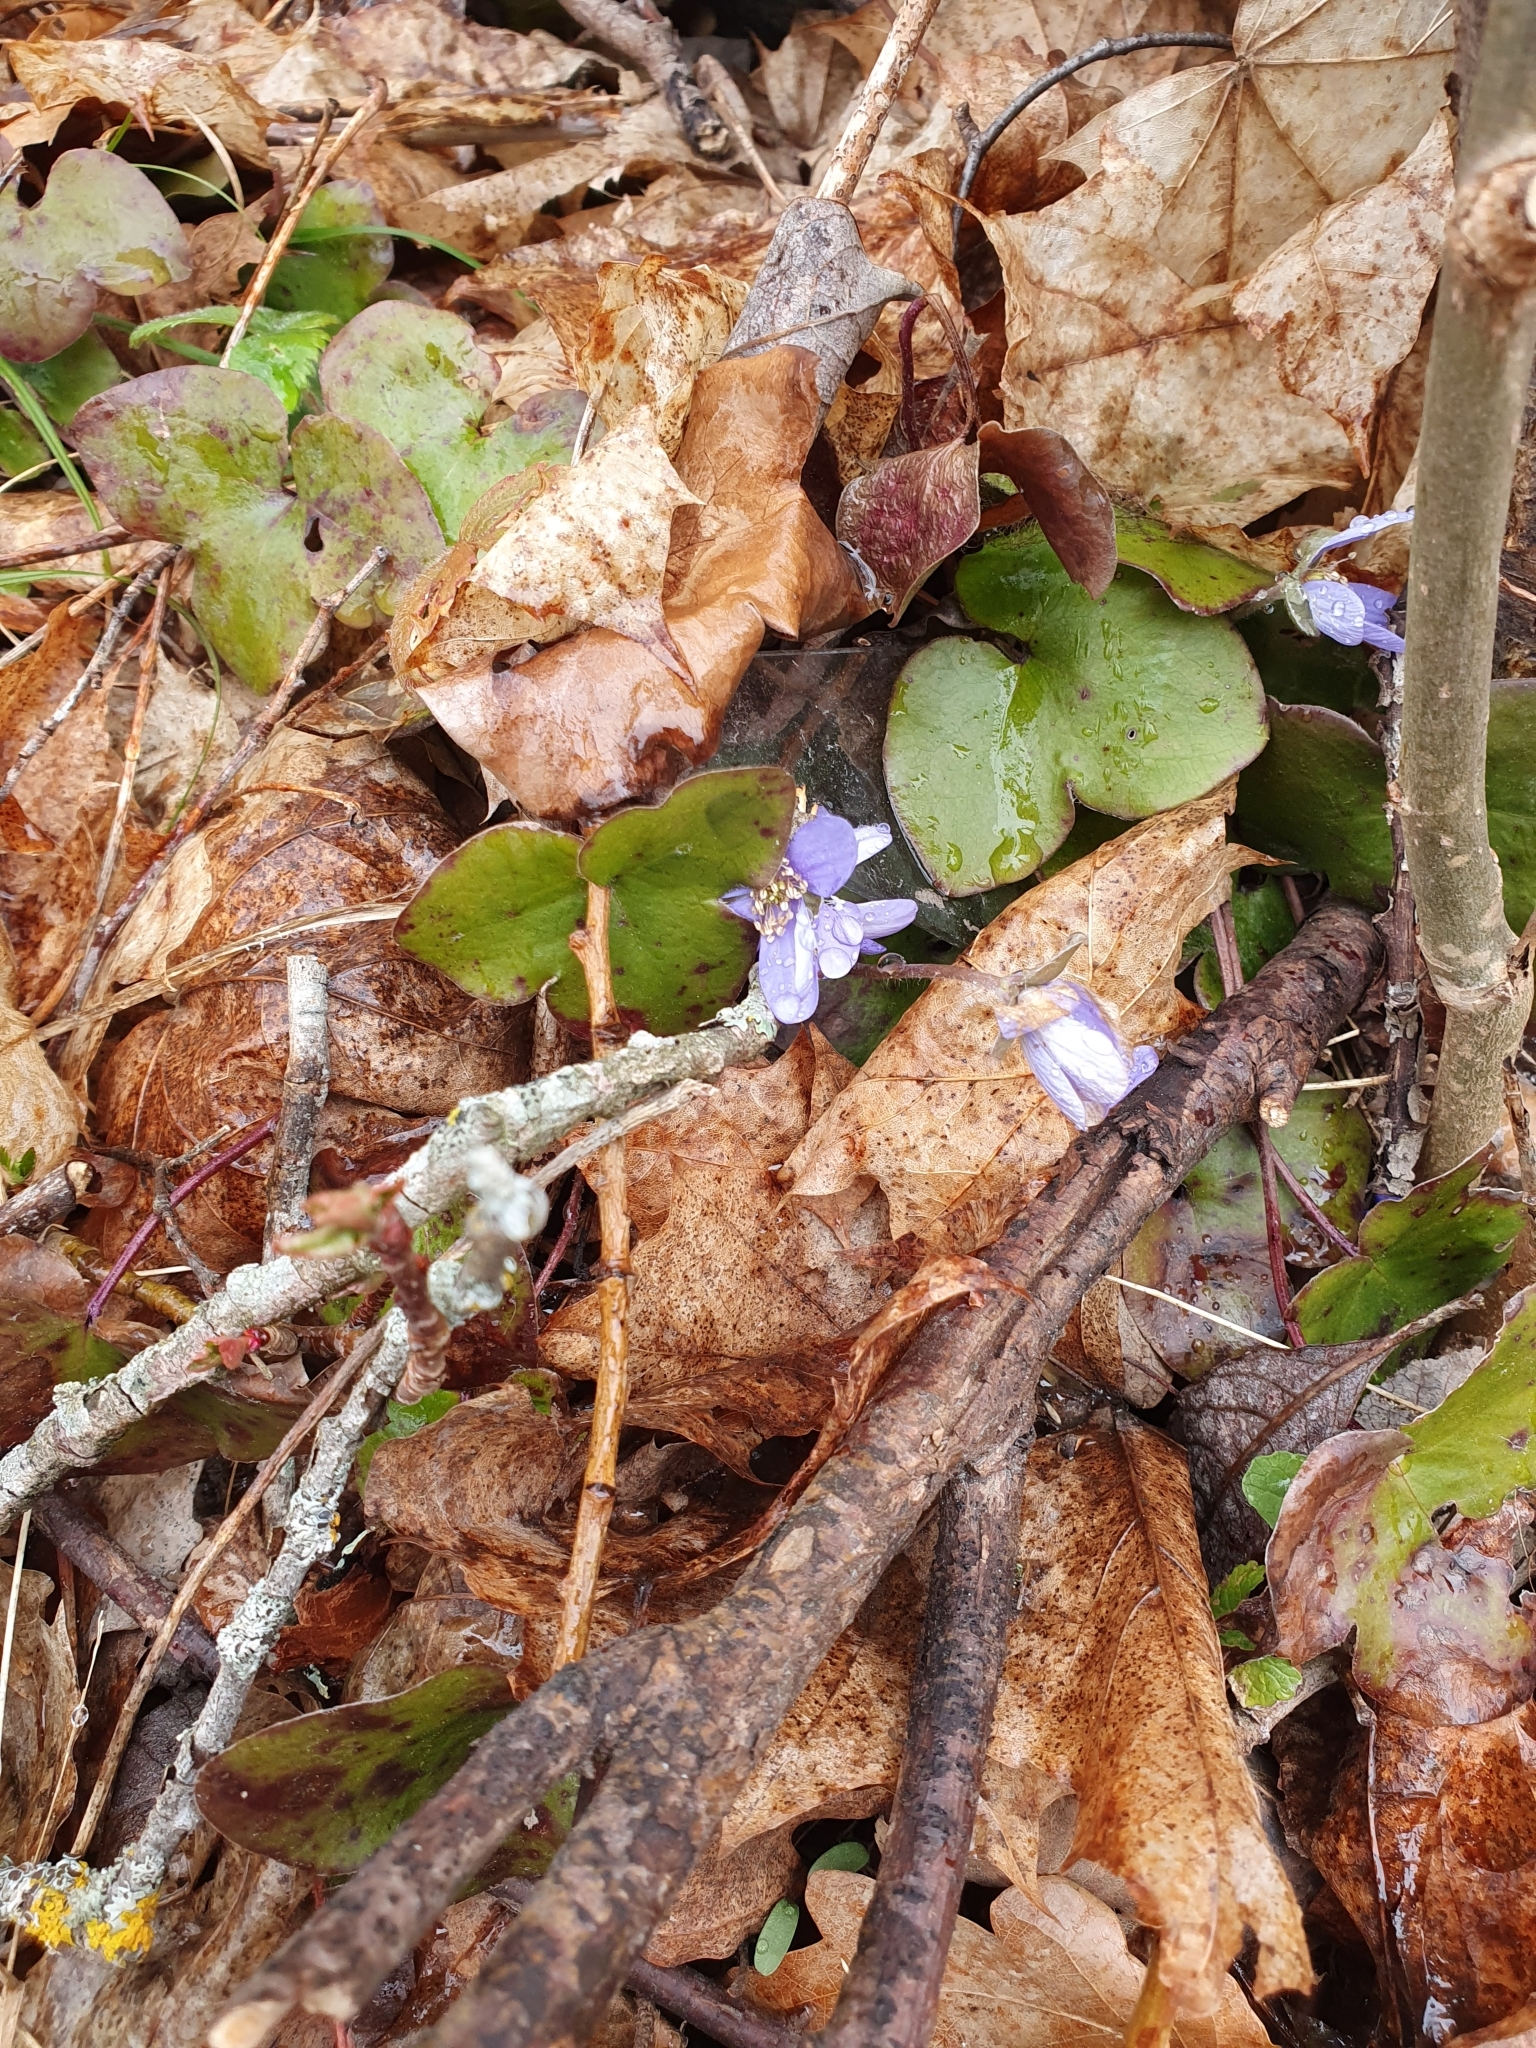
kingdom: Plantae
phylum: Tracheophyta
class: Magnoliopsida
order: Ranunculales
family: Ranunculaceae
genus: Hepatica
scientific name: Hepatica nobilis
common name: Liverleaf
